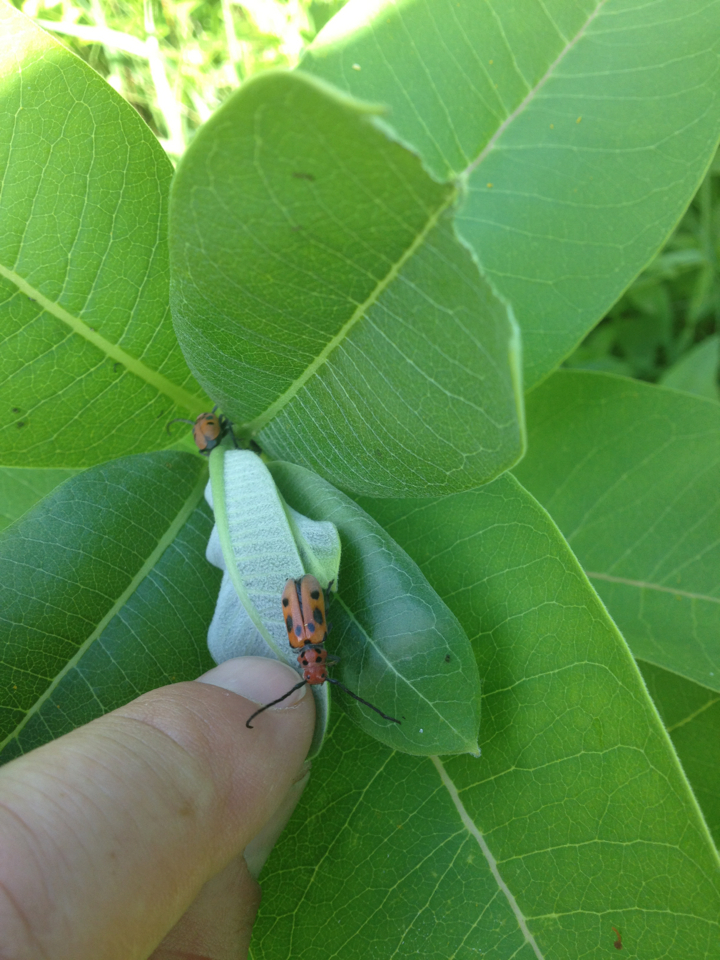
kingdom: Animalia
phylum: Arthropoda
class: Insecta
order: Coleoptera
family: Cerambycidae
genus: Tetraopes
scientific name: Tetraopes tetrophthalmus
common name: Red milkweed beetle
